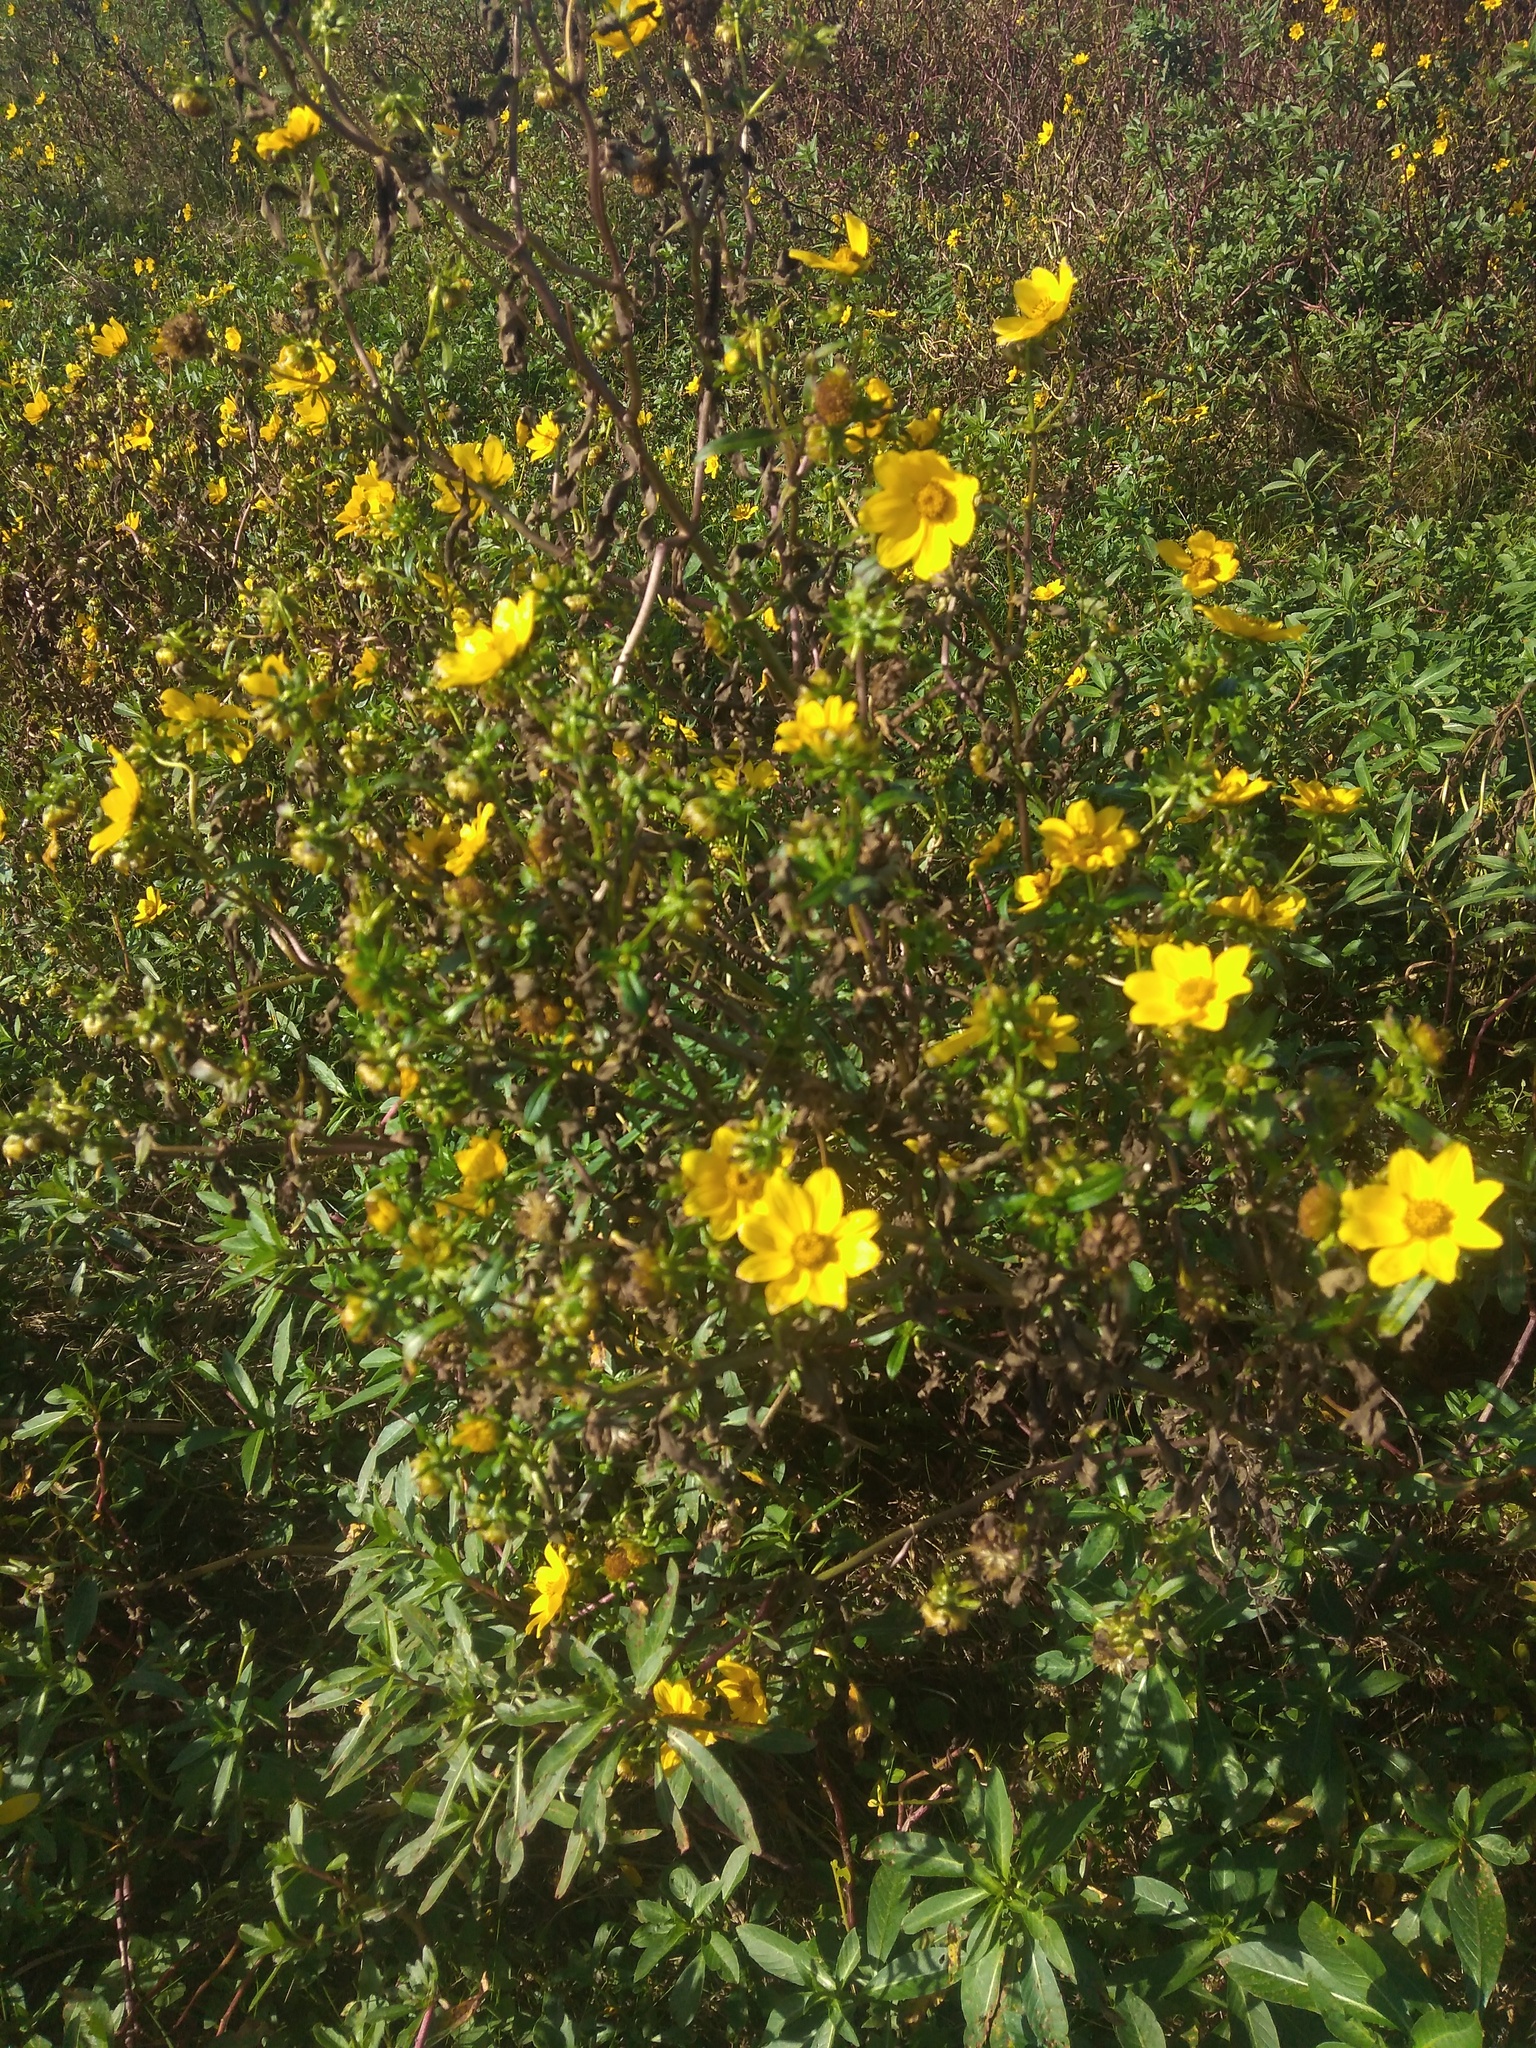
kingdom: Plantae
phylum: Tracheophyta
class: Magnoliopsida
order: Asterales
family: Asteraceae
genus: Bidens
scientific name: Bidens laevis
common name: Larger bur-marigold
